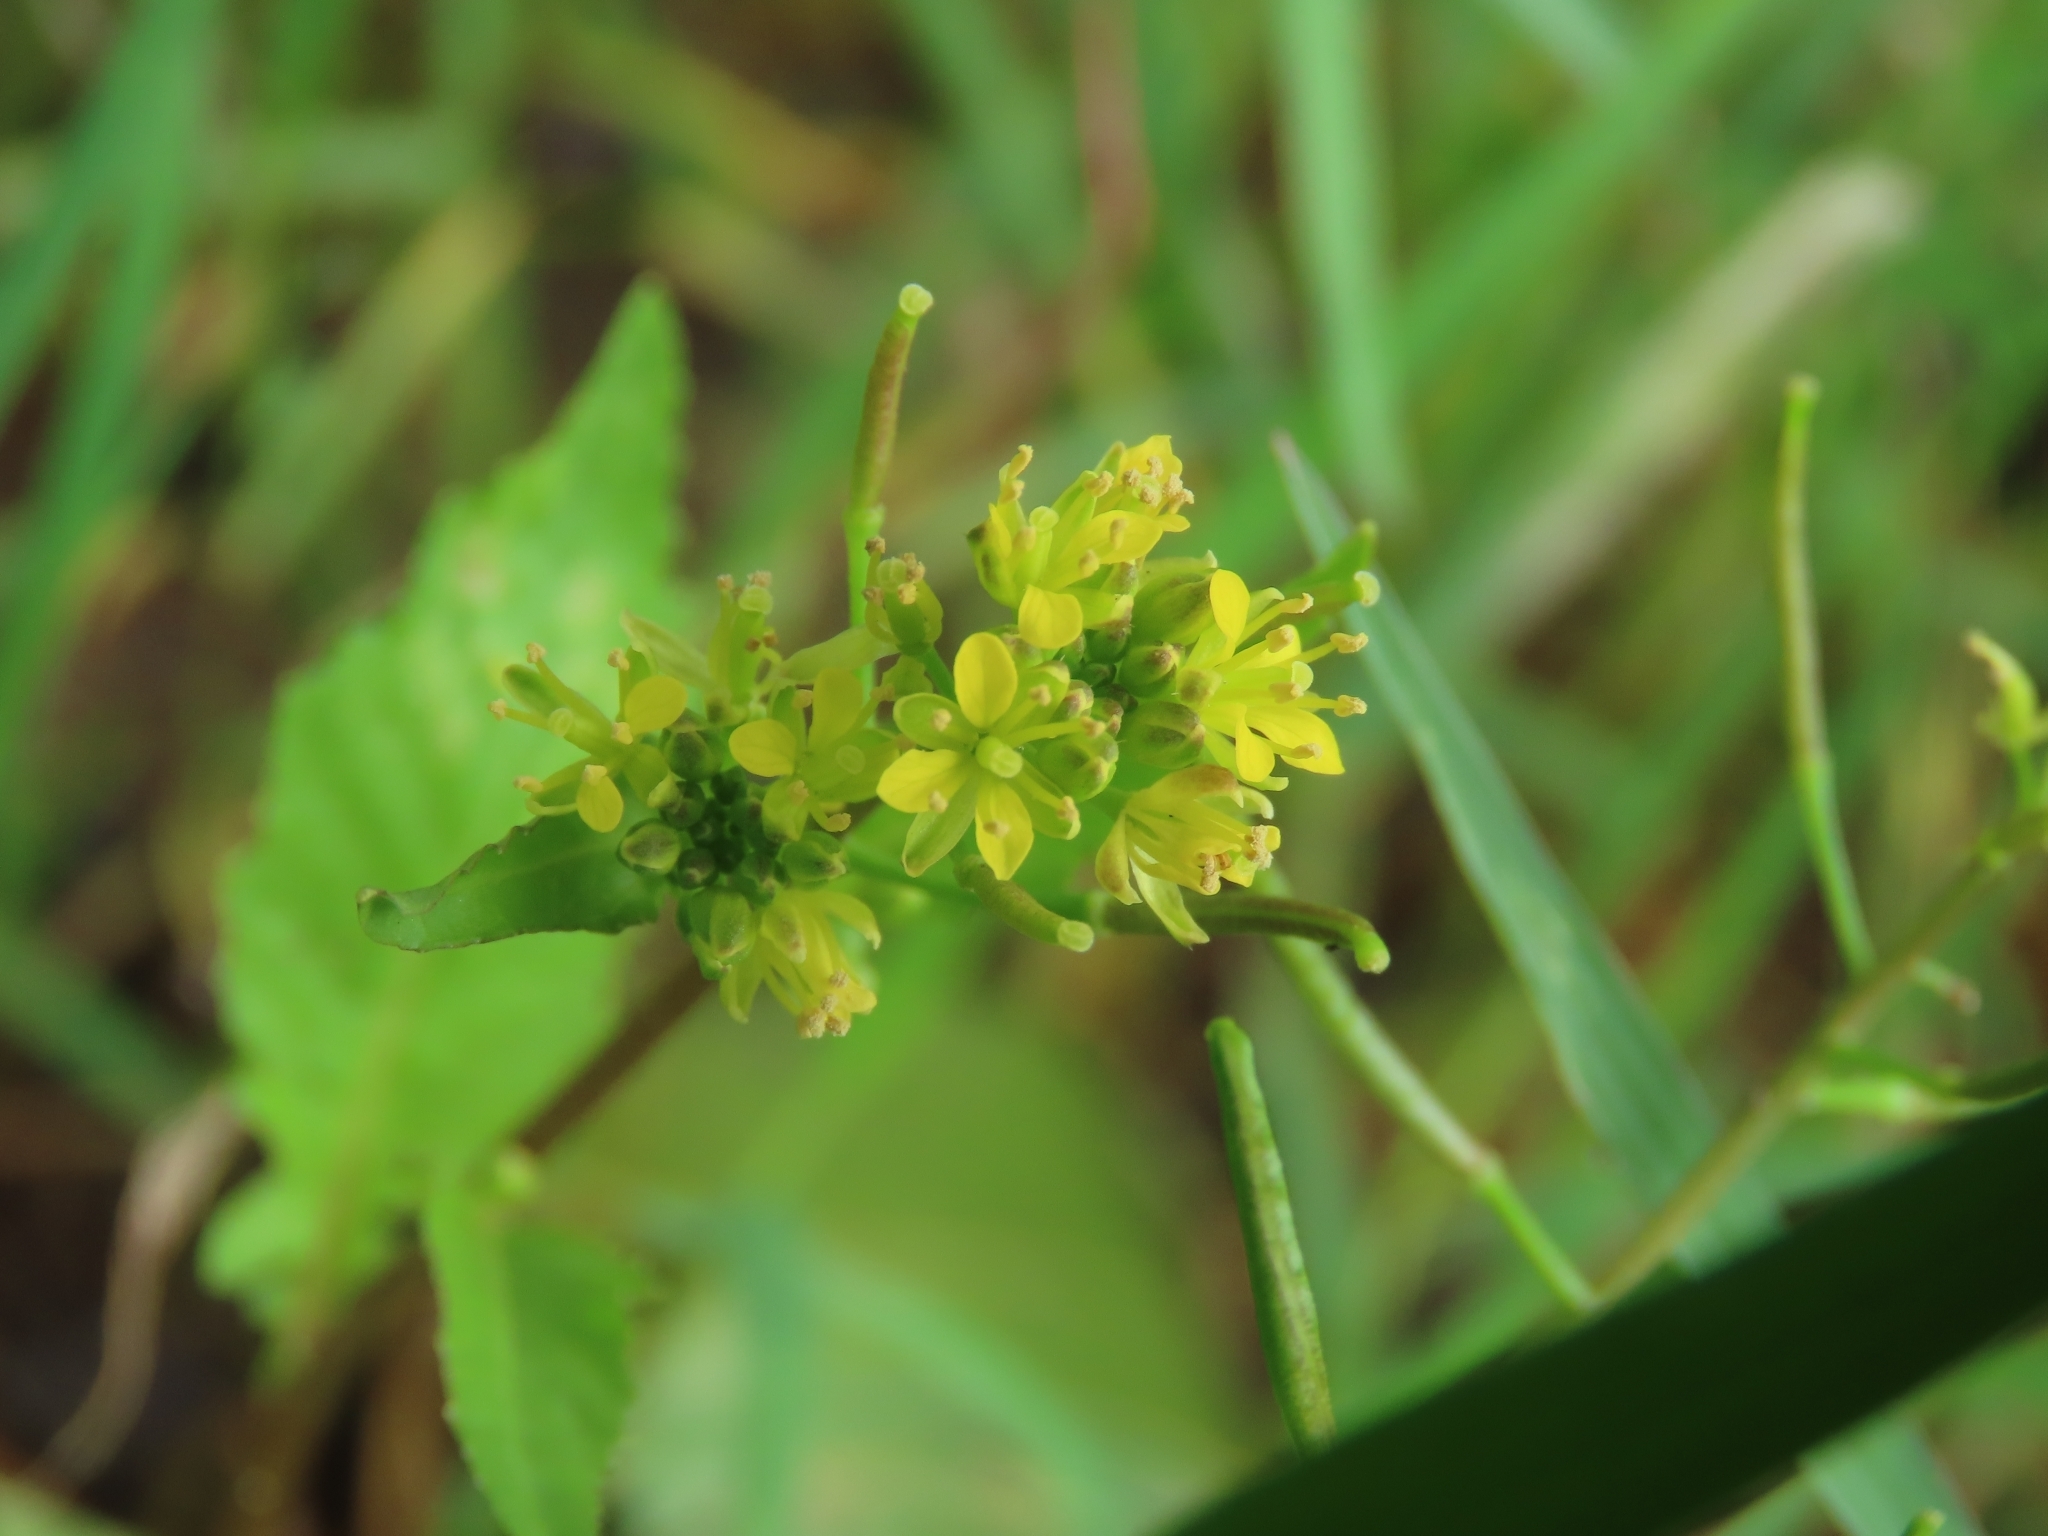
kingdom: Plantae
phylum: Tracheophyta
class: Magnoliopsida
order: Brassicales
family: Brassicaceae
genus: Rorippa
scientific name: Rorippa indica
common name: Variableleaf yellowcress
